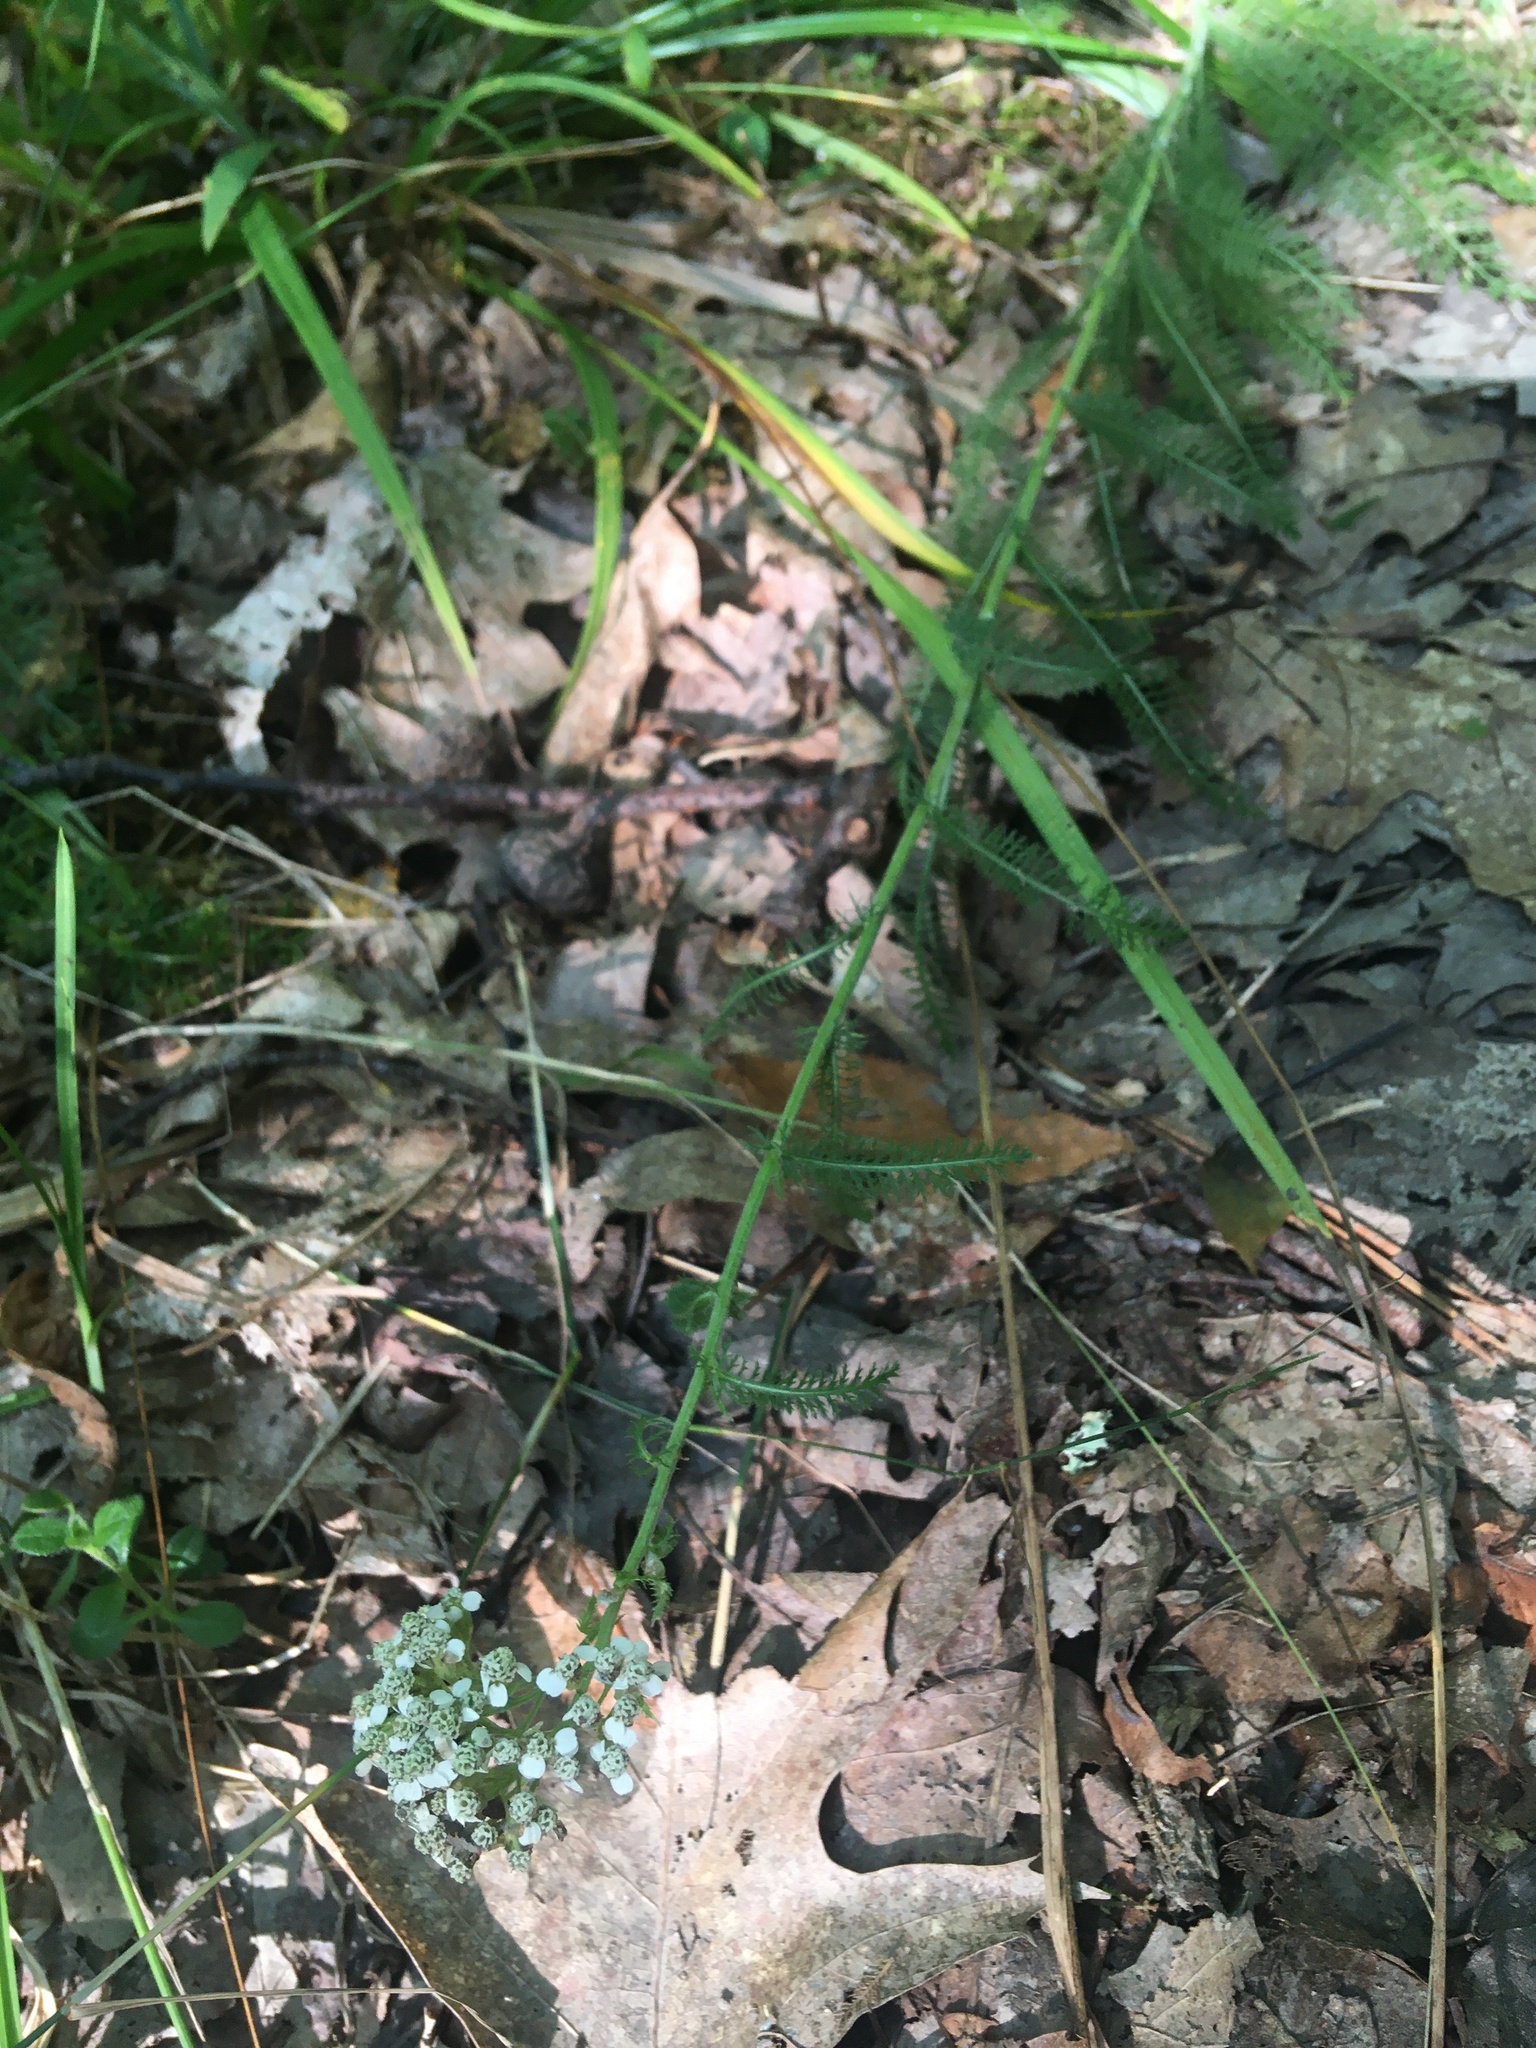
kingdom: Plantae
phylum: Tracheophyta
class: Magnoliopsida
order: Asterales
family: Asteraceae
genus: Achillea
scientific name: Achillea millefolium
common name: Yarrow
